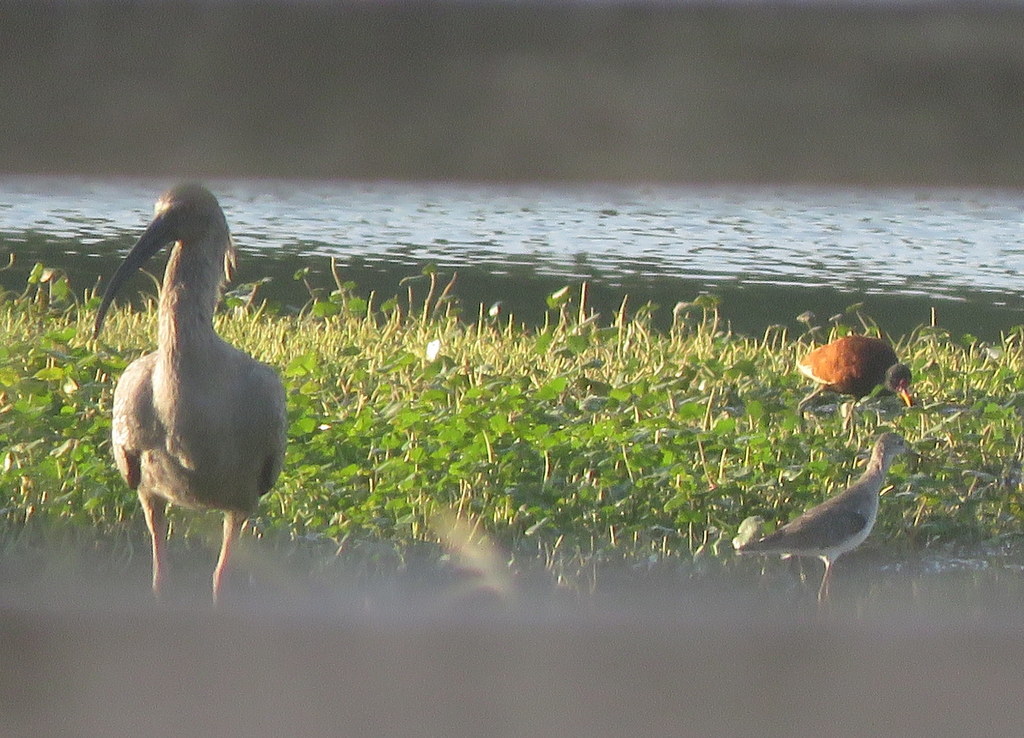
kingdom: Animalia
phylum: Chordata
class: Aves
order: Charadriiformes
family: Scolopacidae
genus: Tringa
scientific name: Tringa flavipes
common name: Lesser yellowlegs
